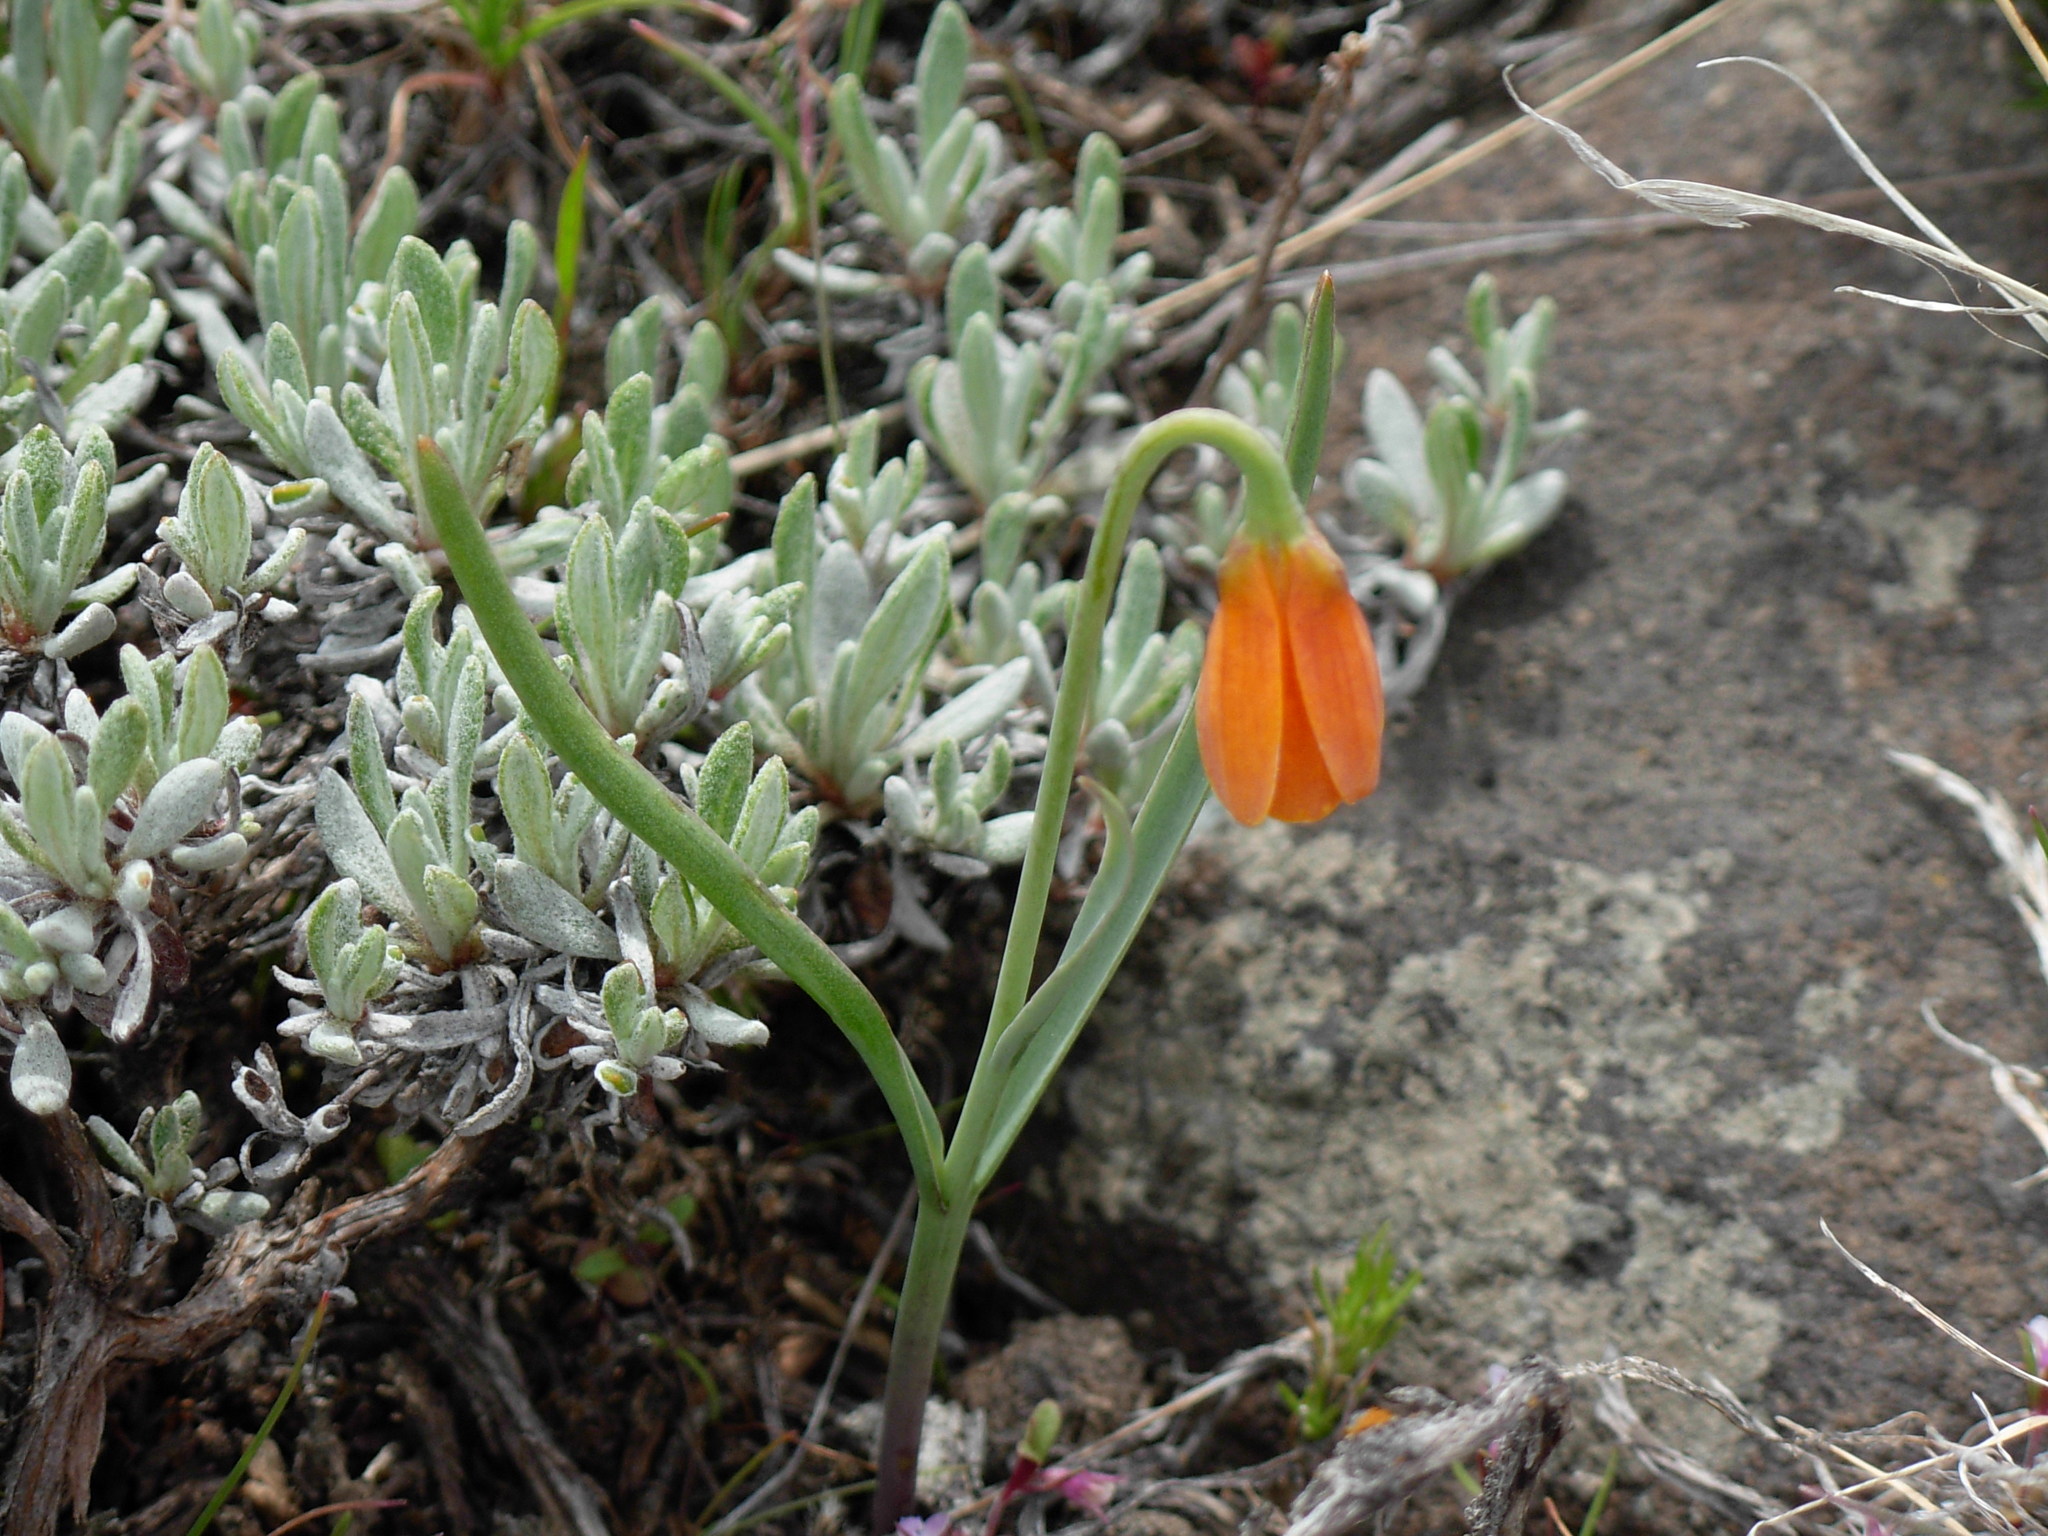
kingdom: Plantae
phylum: Tracheophyta
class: Liliopsida
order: Liliales
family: Liliaceae
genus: Fritillaria
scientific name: Fritillaria pudica
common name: Yellow fritillary
